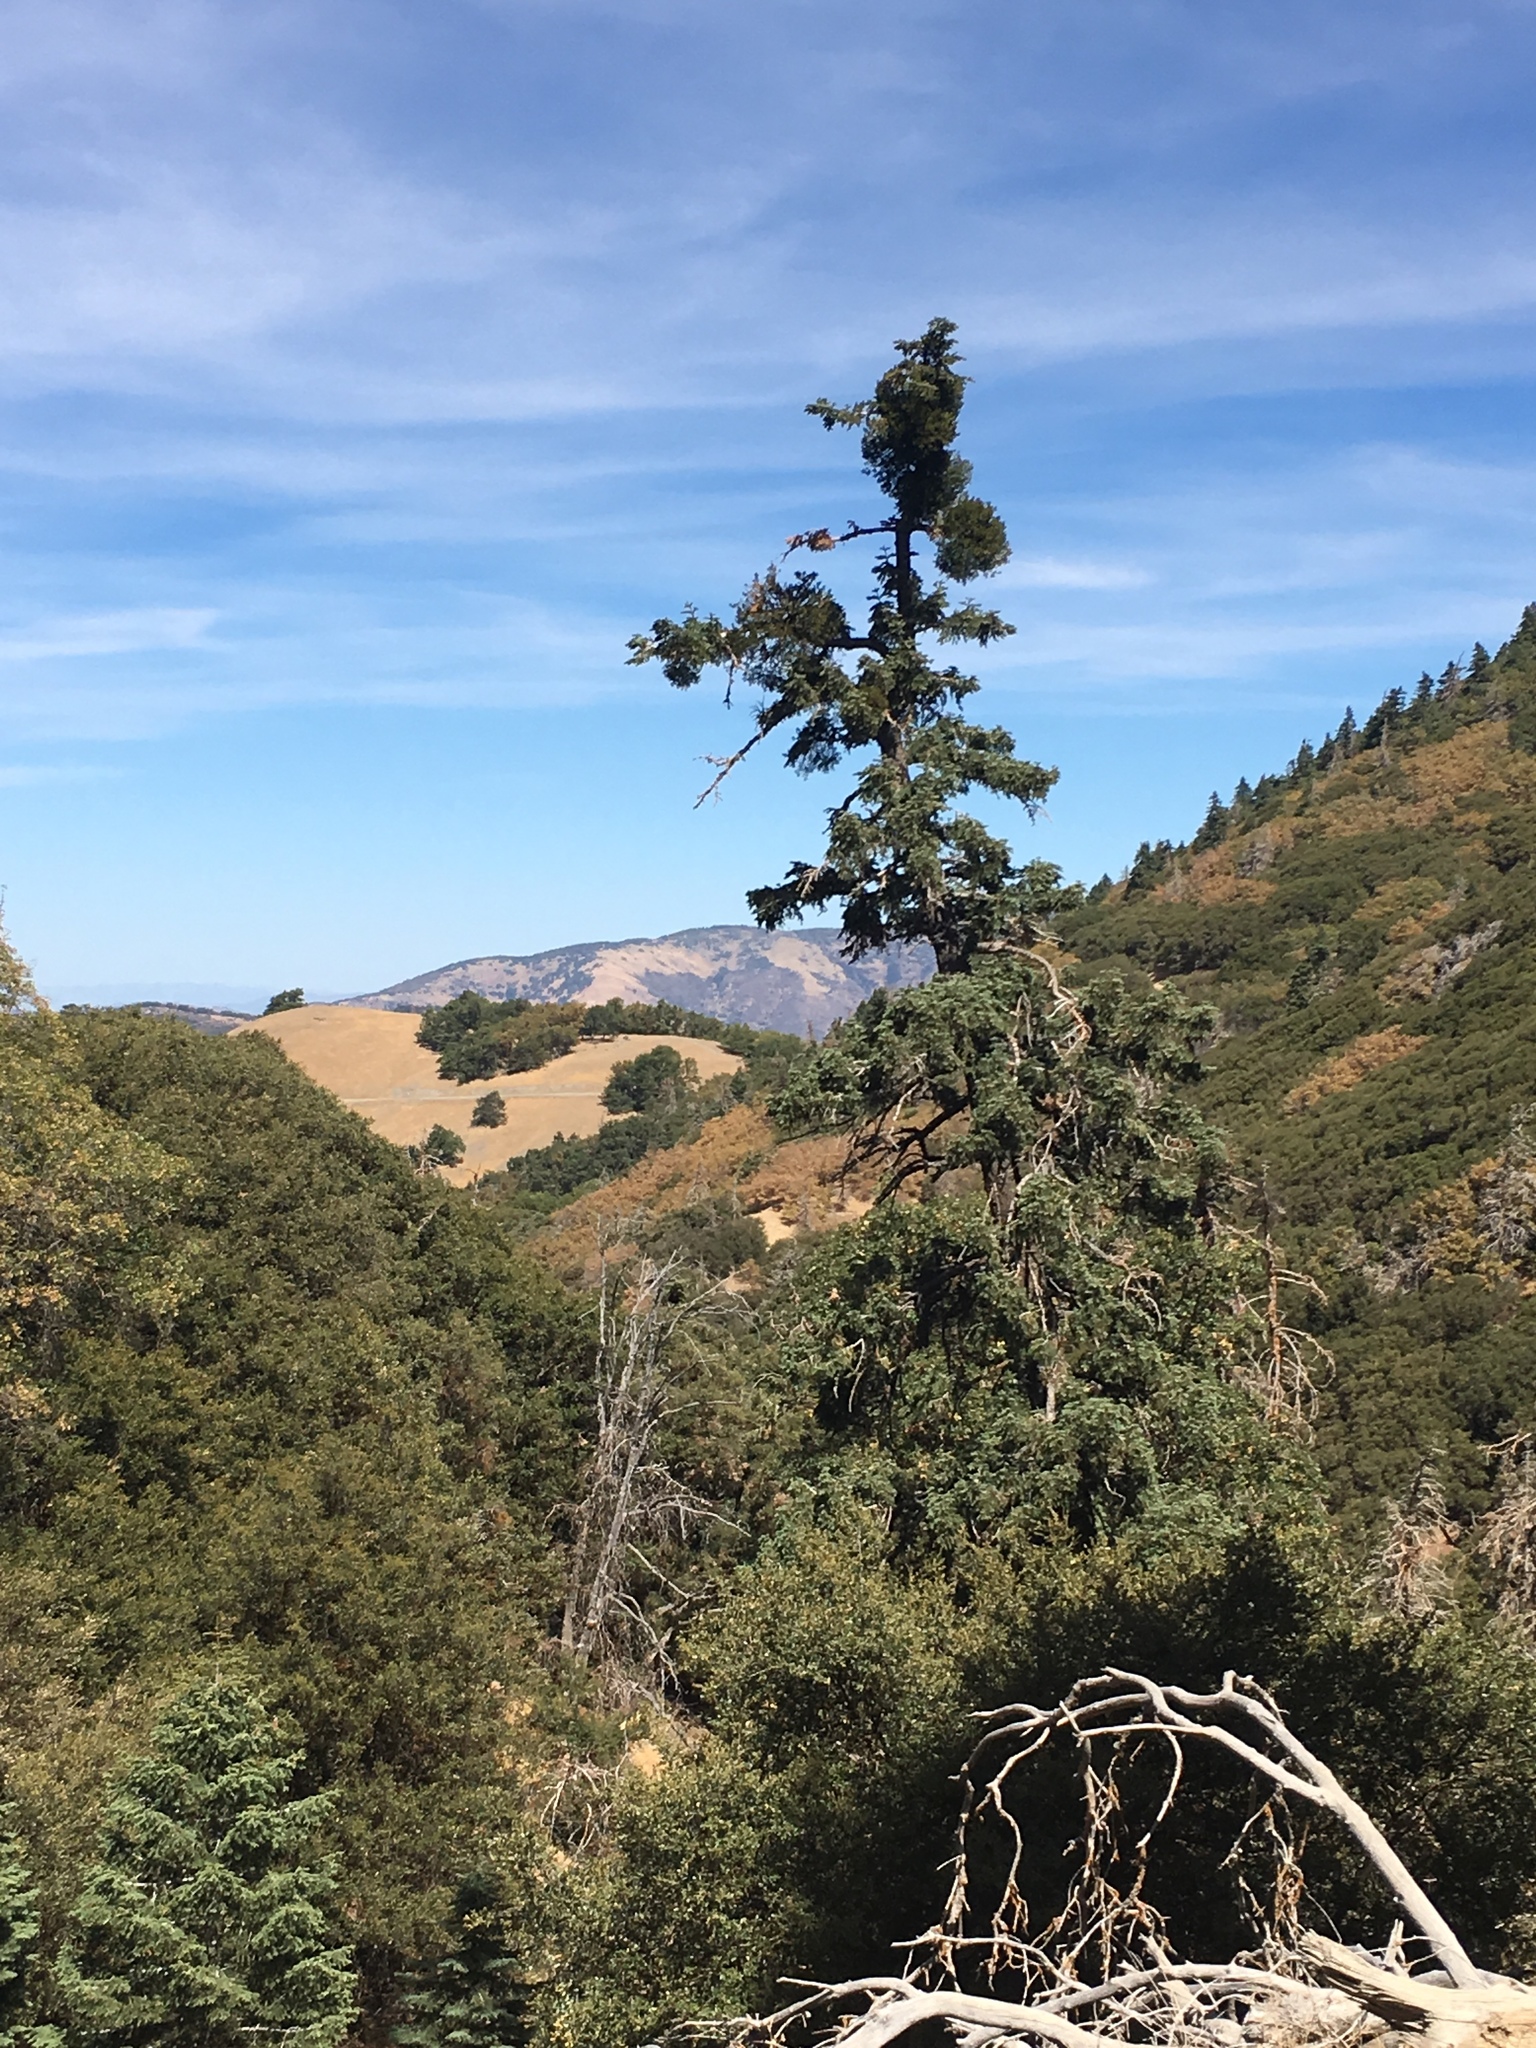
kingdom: Plantae
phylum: Tracheophyta
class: Pinopsida
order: Pinales
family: Pinaceae
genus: Abies
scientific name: Abies concolor
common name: Colorado fir
